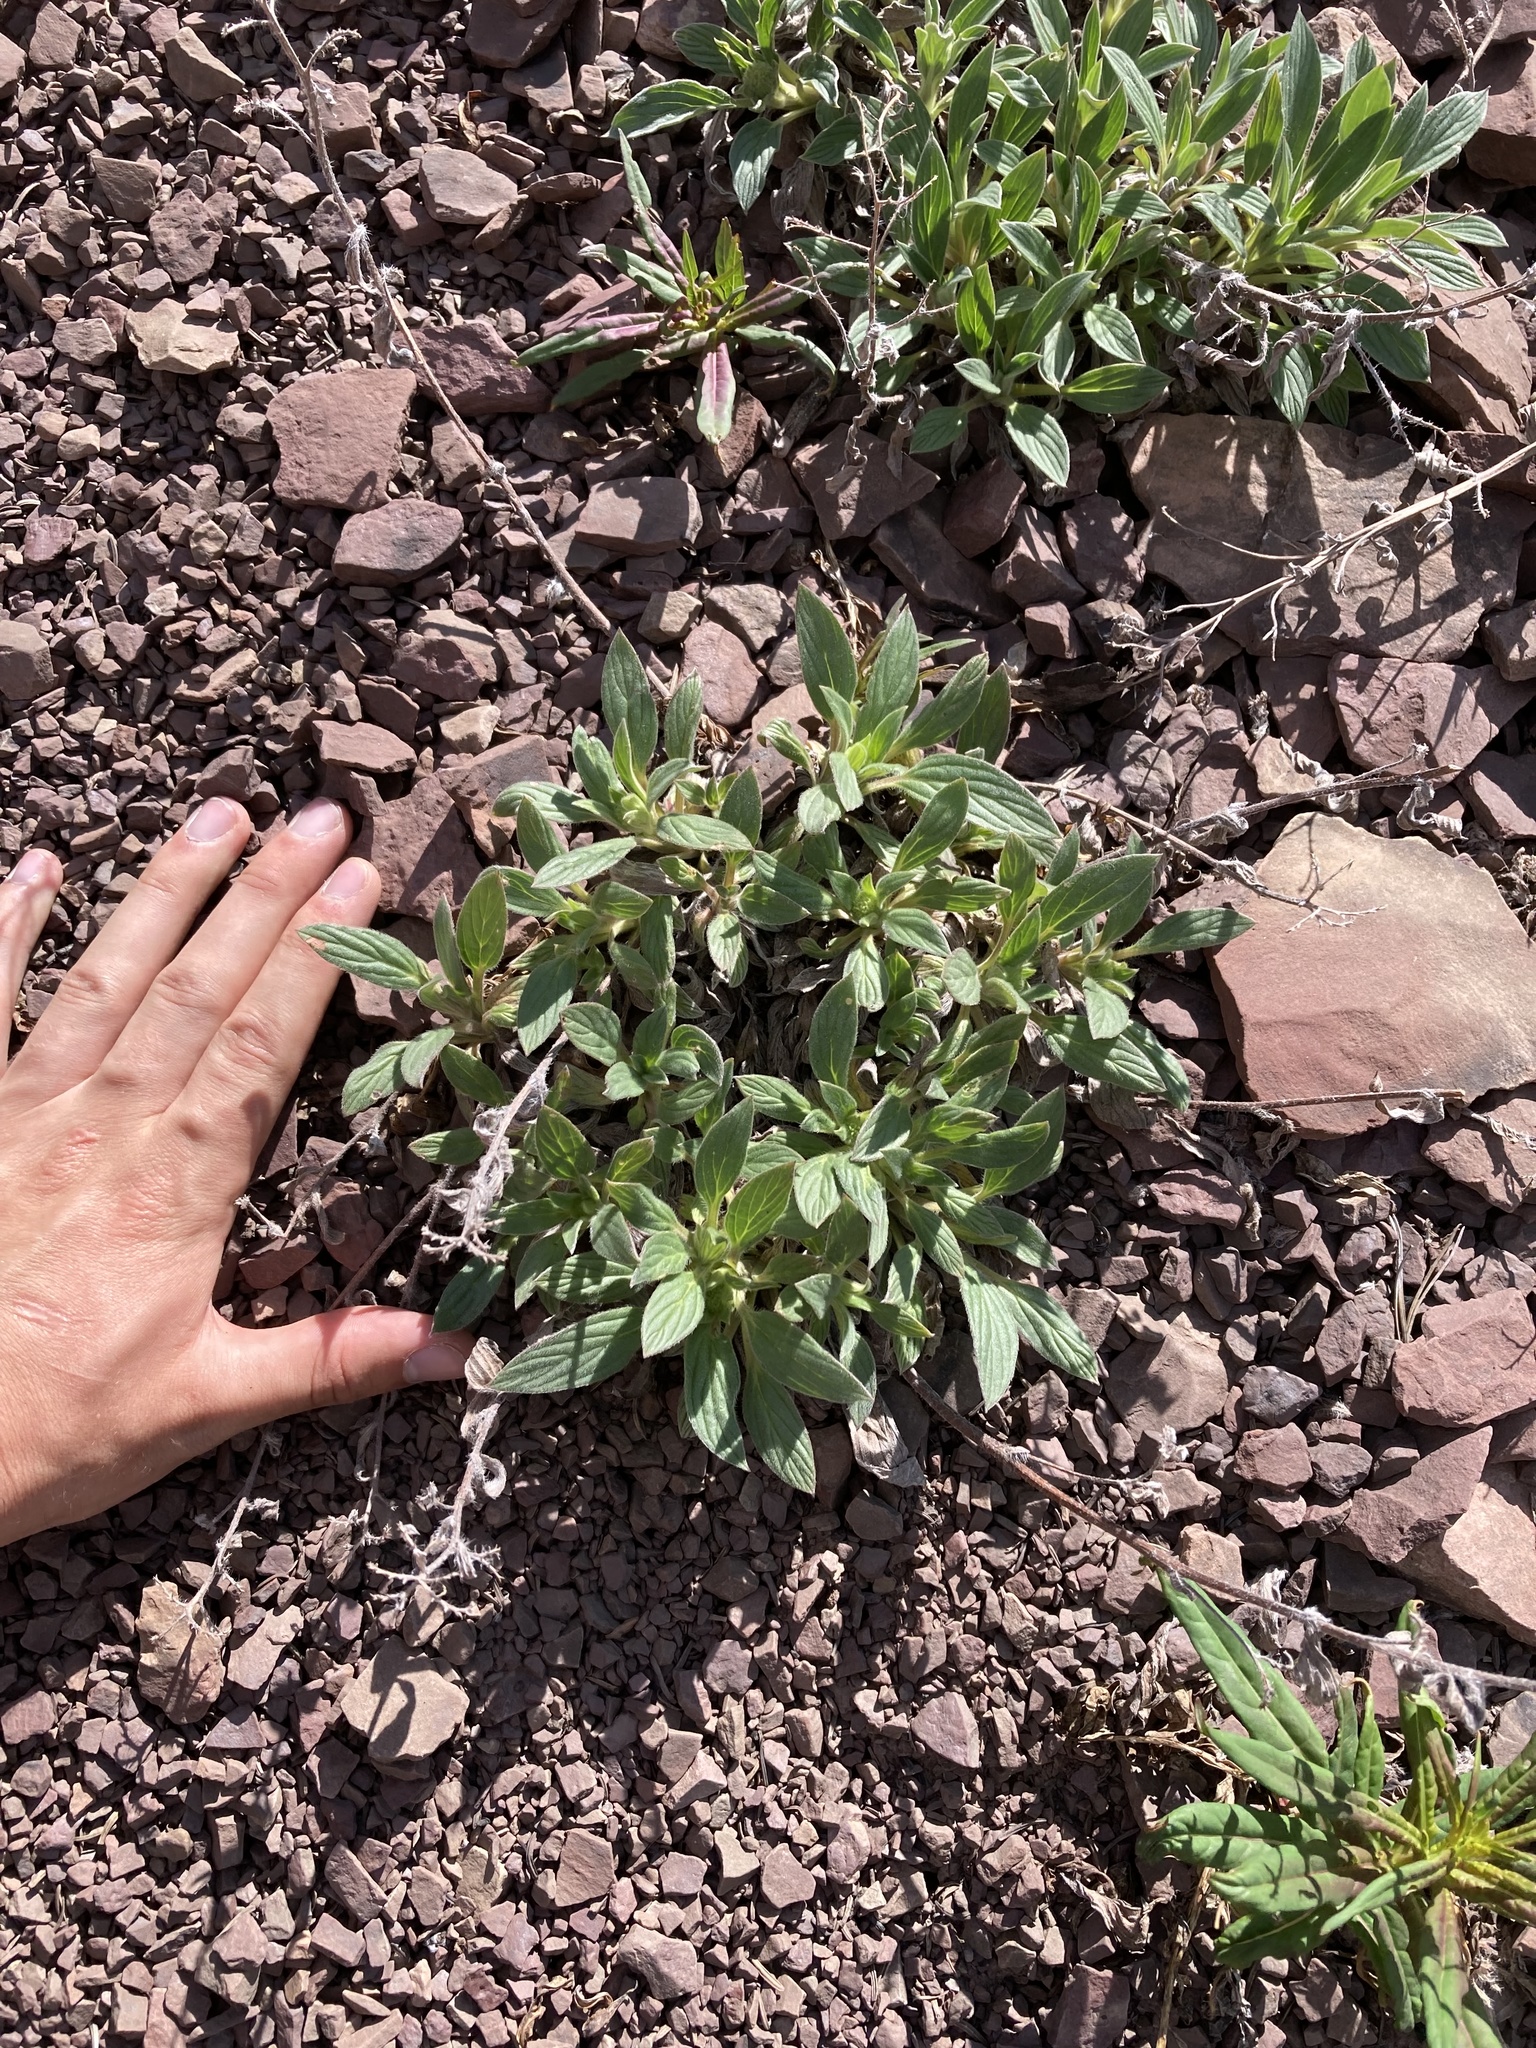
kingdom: Plantae
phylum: Tracheophyta
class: Magnoliopsida
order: Boraginales
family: Hydrophyllaceae
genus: Phacelia
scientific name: Phacelia hastata
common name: Silver-leaved phacelia
